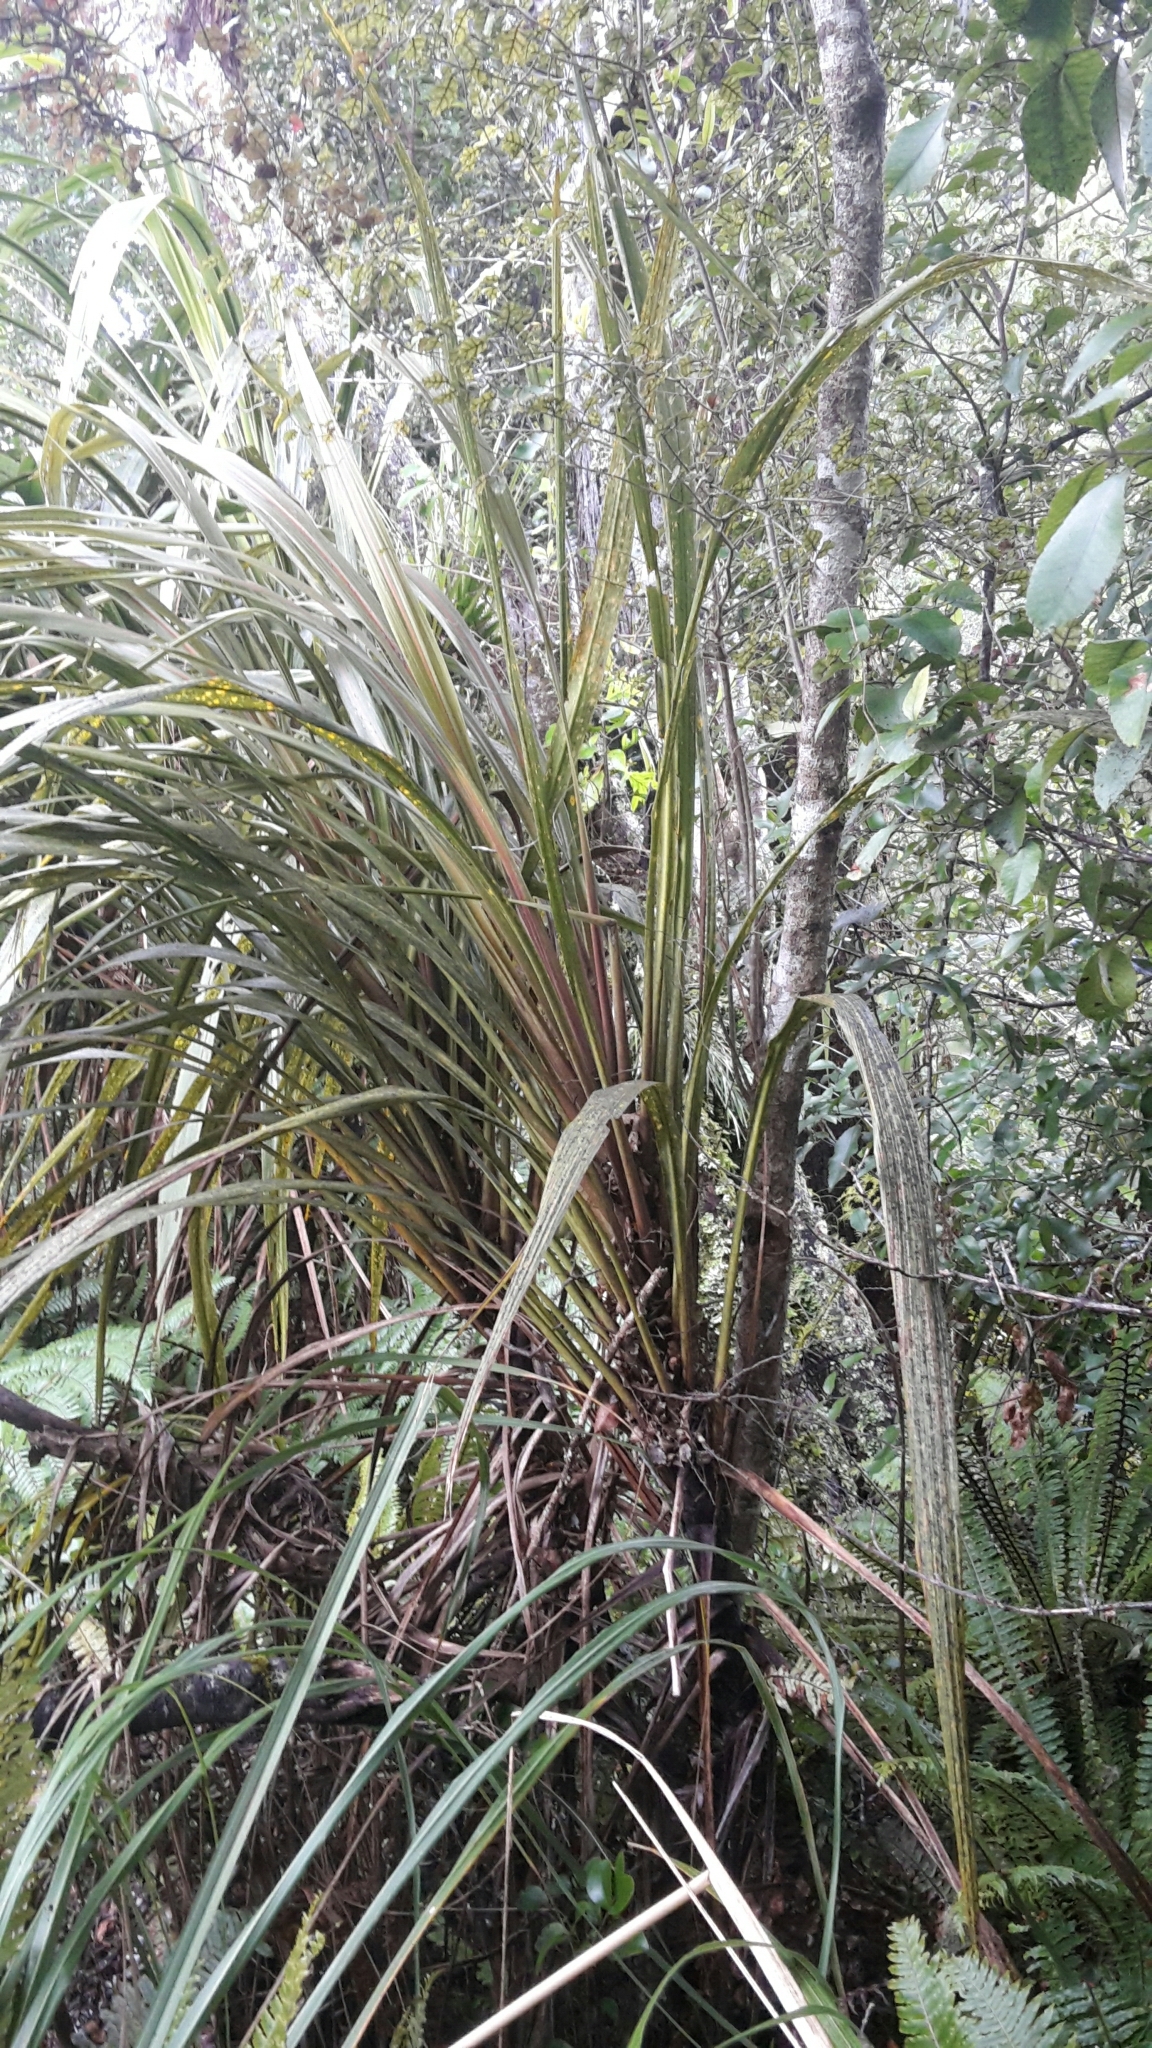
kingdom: Plantae
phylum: Tracheophyta
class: Liliopsida
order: Asparagales
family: Asparagaceae
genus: Cordyline
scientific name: Cordyline banksii
